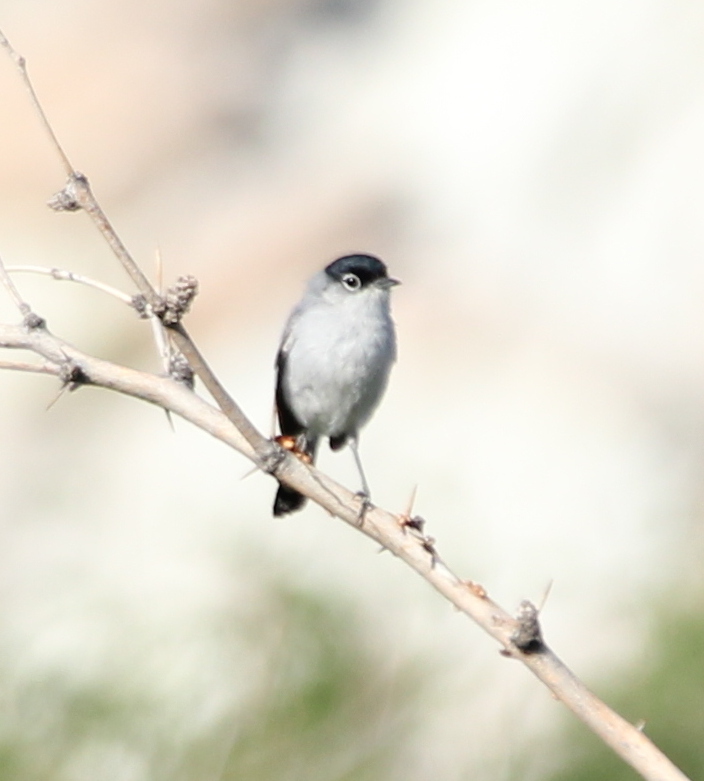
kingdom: Animalia
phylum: Chordata
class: Aves
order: Passeriformes
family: Polioptilidae
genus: Polioptila
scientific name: Polioptila melanura
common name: Black-tailed gnatcatcher
